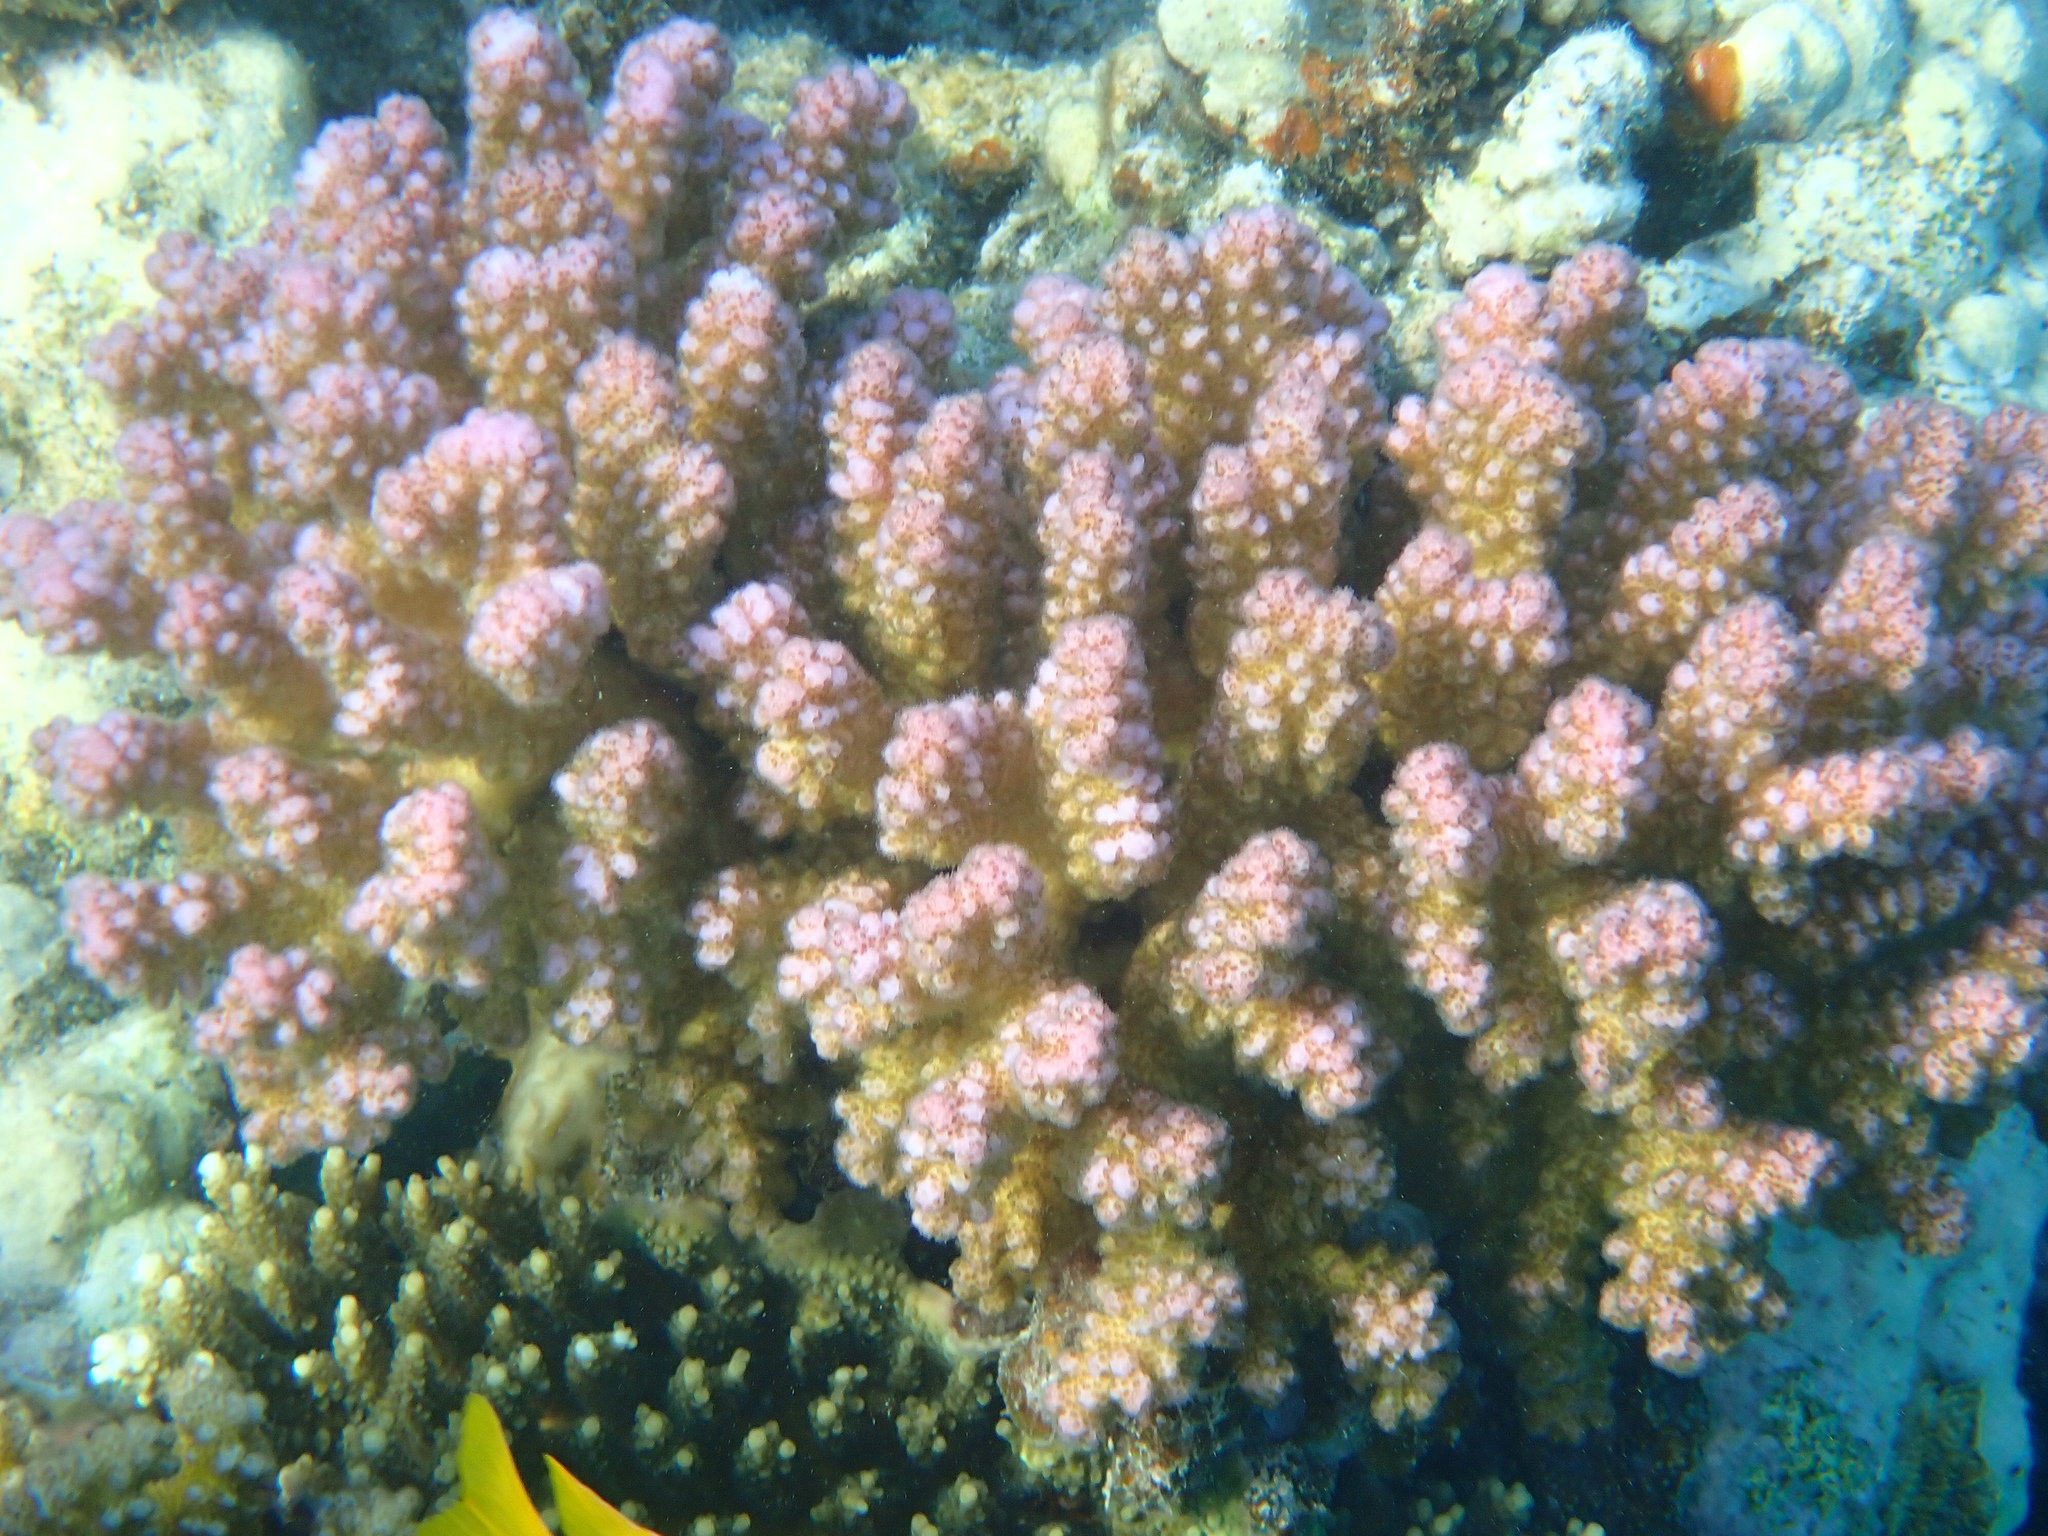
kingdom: Animalia
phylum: Cnidaria
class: Anthozoa
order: Scleractinia
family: Pocilloporidae
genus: Pocillopora
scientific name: Pocillopora verrucosa
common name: Cauliflower coral
